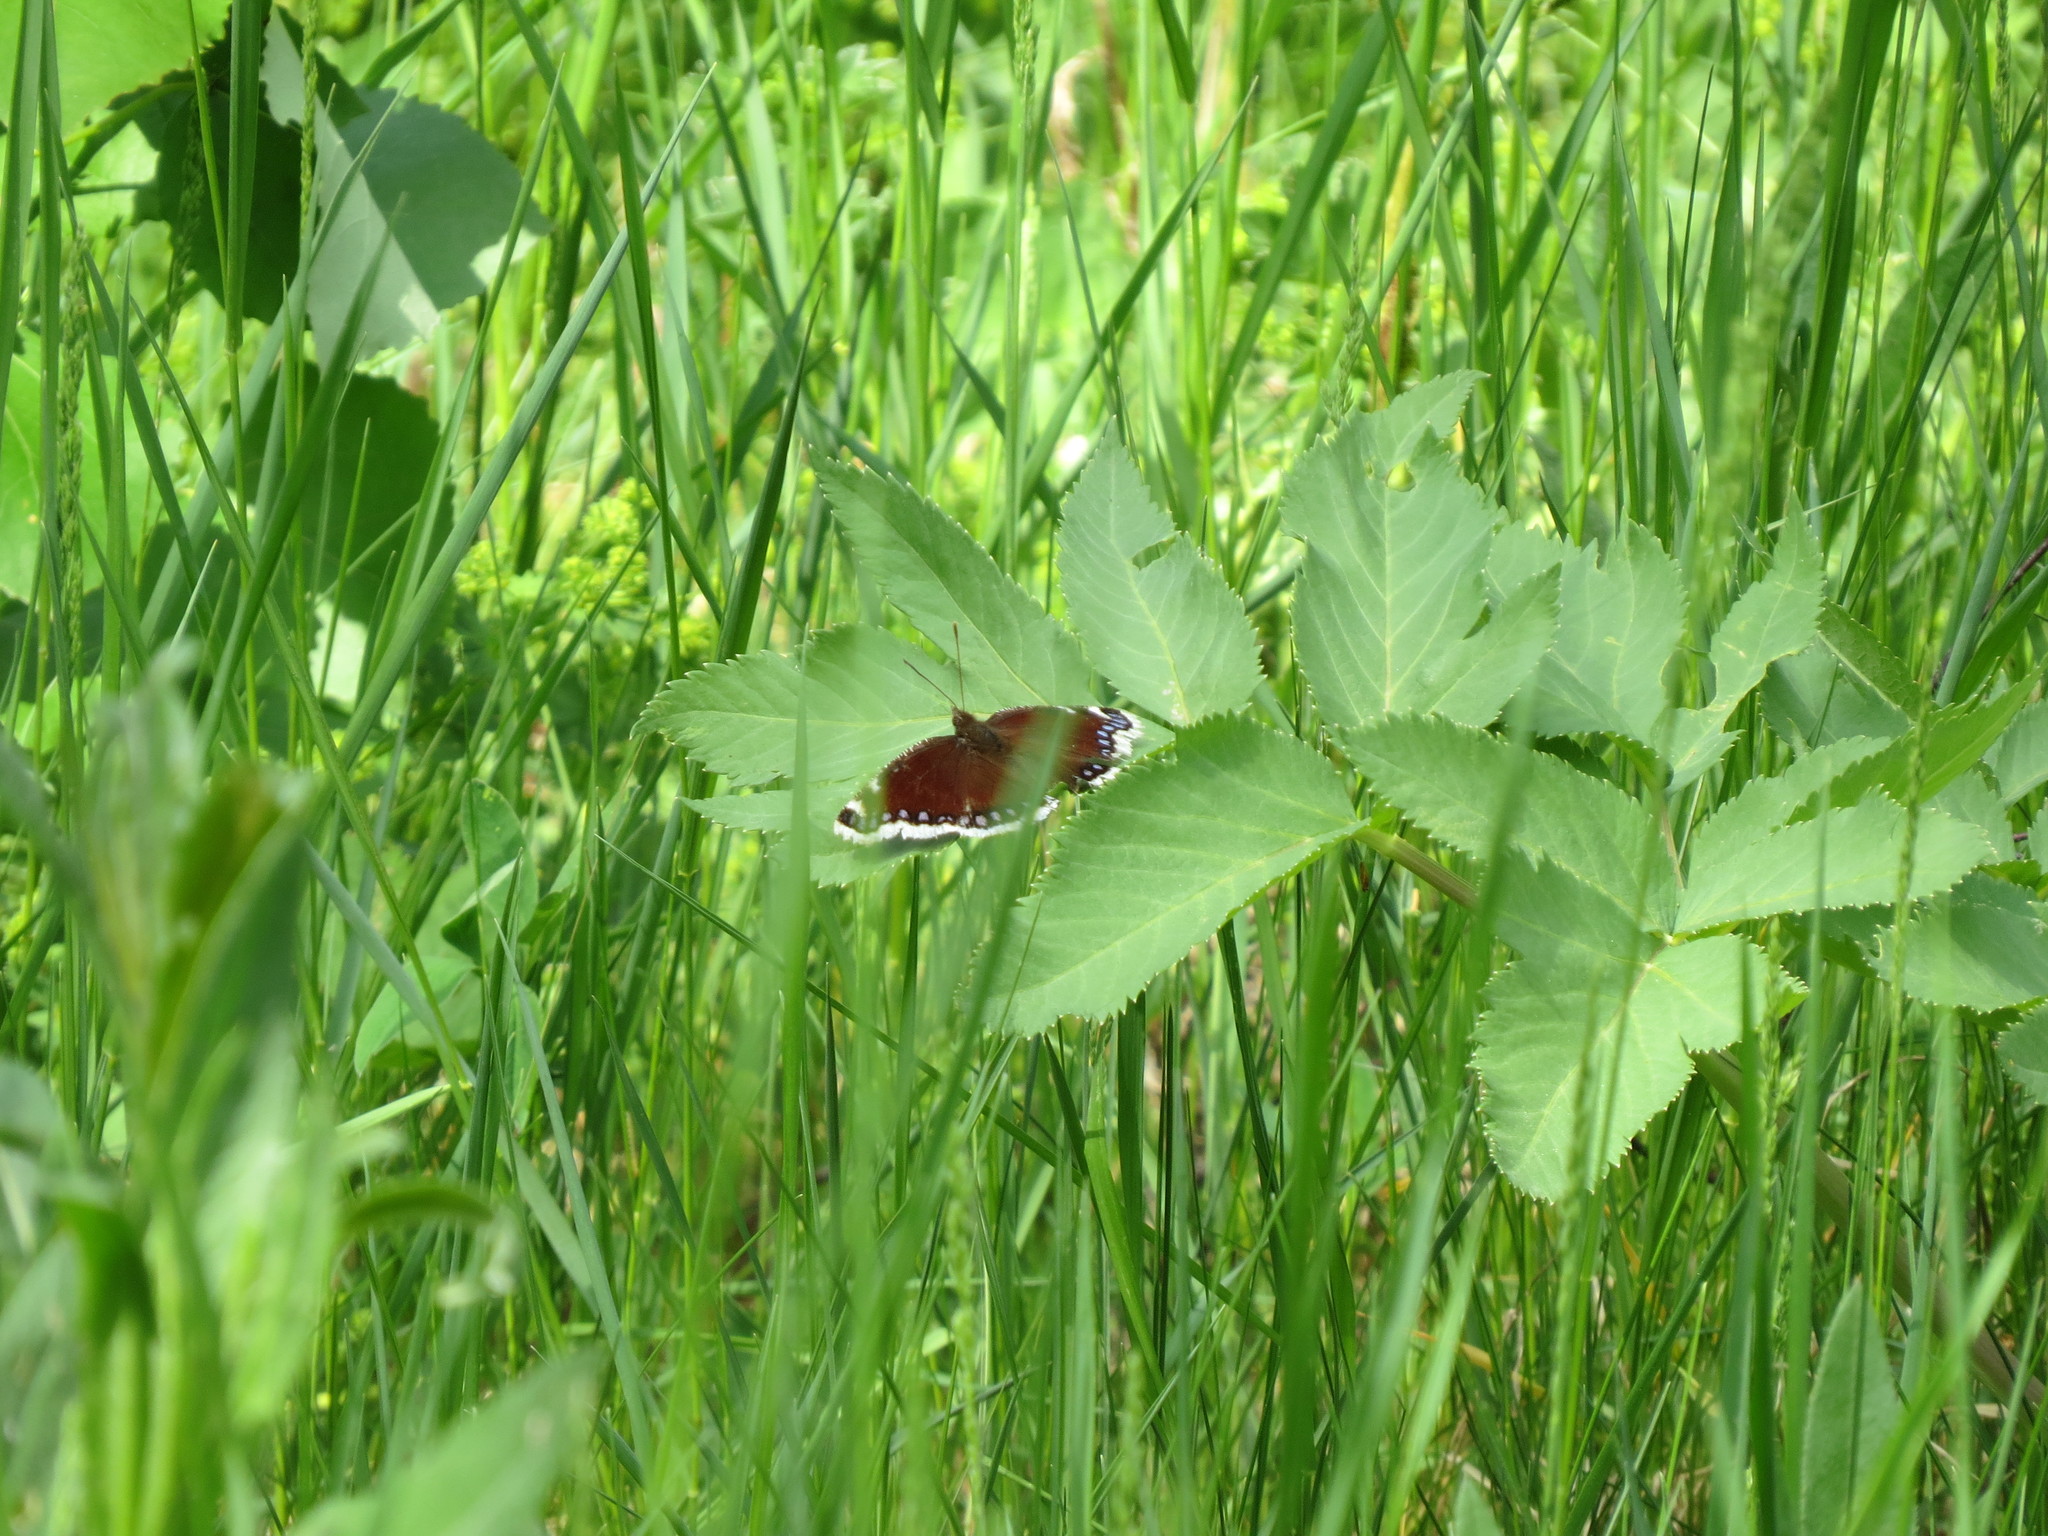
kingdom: Animalia
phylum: Arthropoda
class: Insecta
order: Lepidoptera
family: Nymphalidae
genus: Nymphalis
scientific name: Nymphalis antiopa
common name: Camberwell beauty
